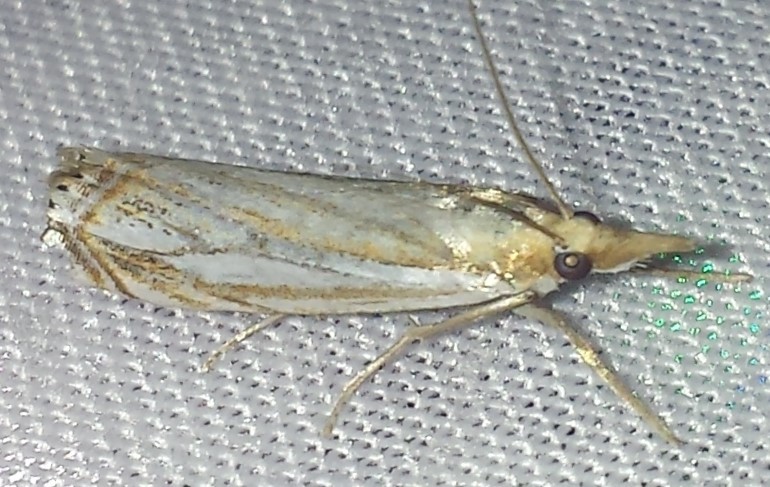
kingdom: Animalia
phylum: Arthropoda
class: Insecta
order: Lepidoptera
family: Crambidae
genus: Crambus
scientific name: Crambus saltuellus
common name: Pasture grass-veneer
